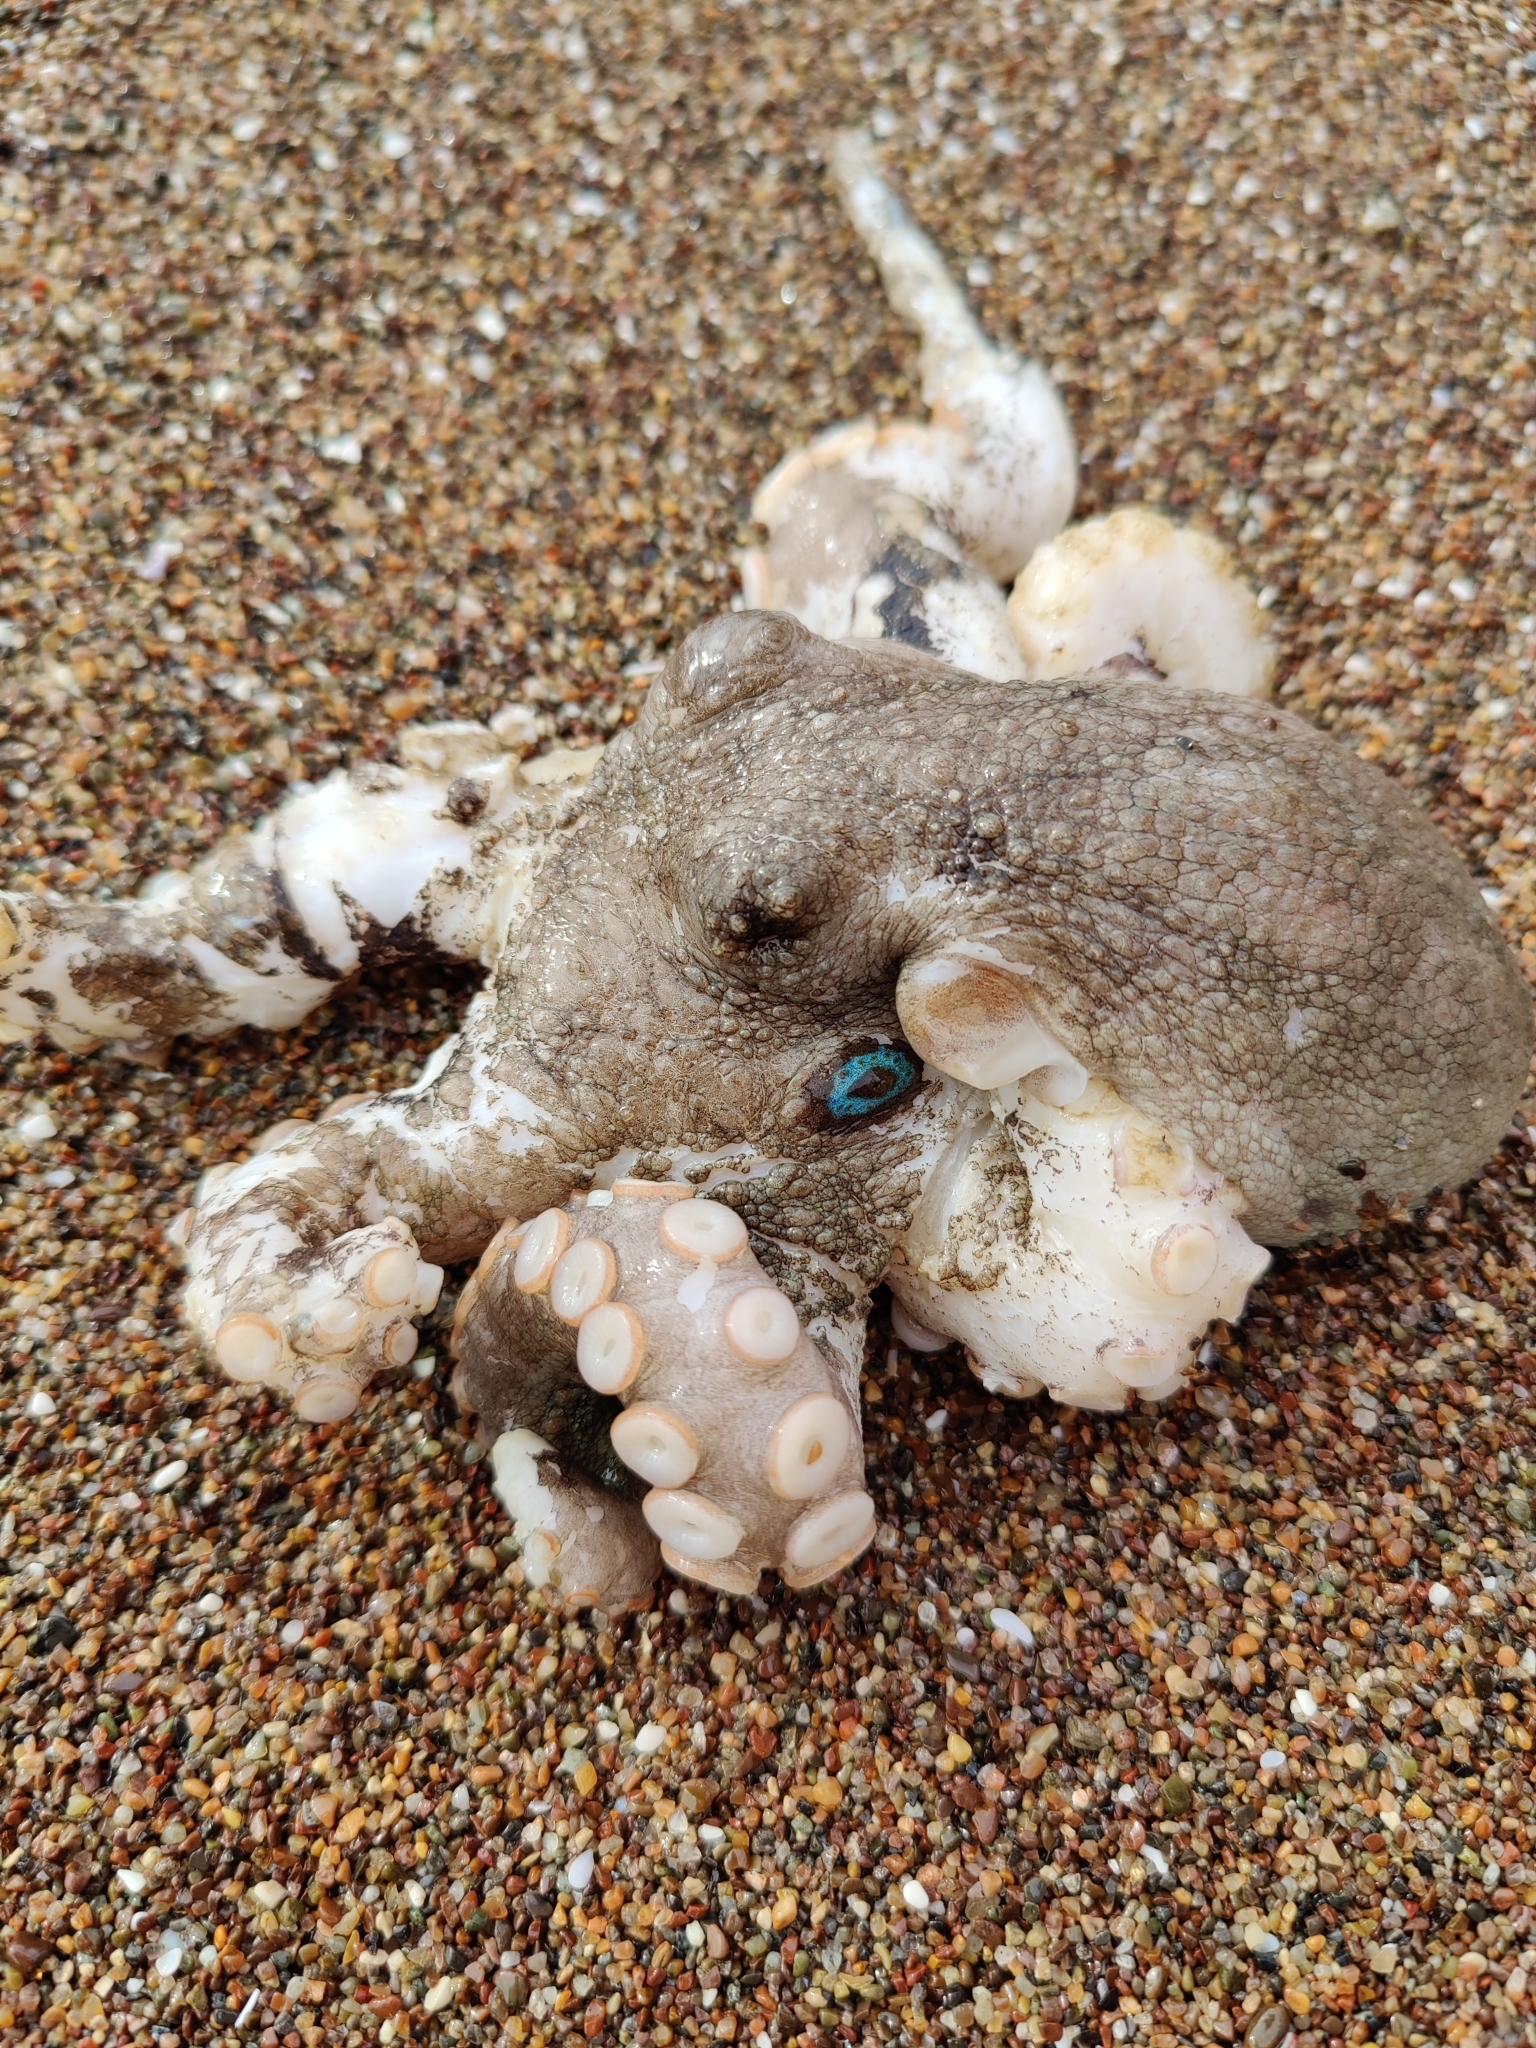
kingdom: Animalia
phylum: Mollusca
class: Cephalopoda
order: Octopoda
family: Octopodidae
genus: Octopus
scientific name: Octopus bimaculatus
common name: California two-spot octopus
